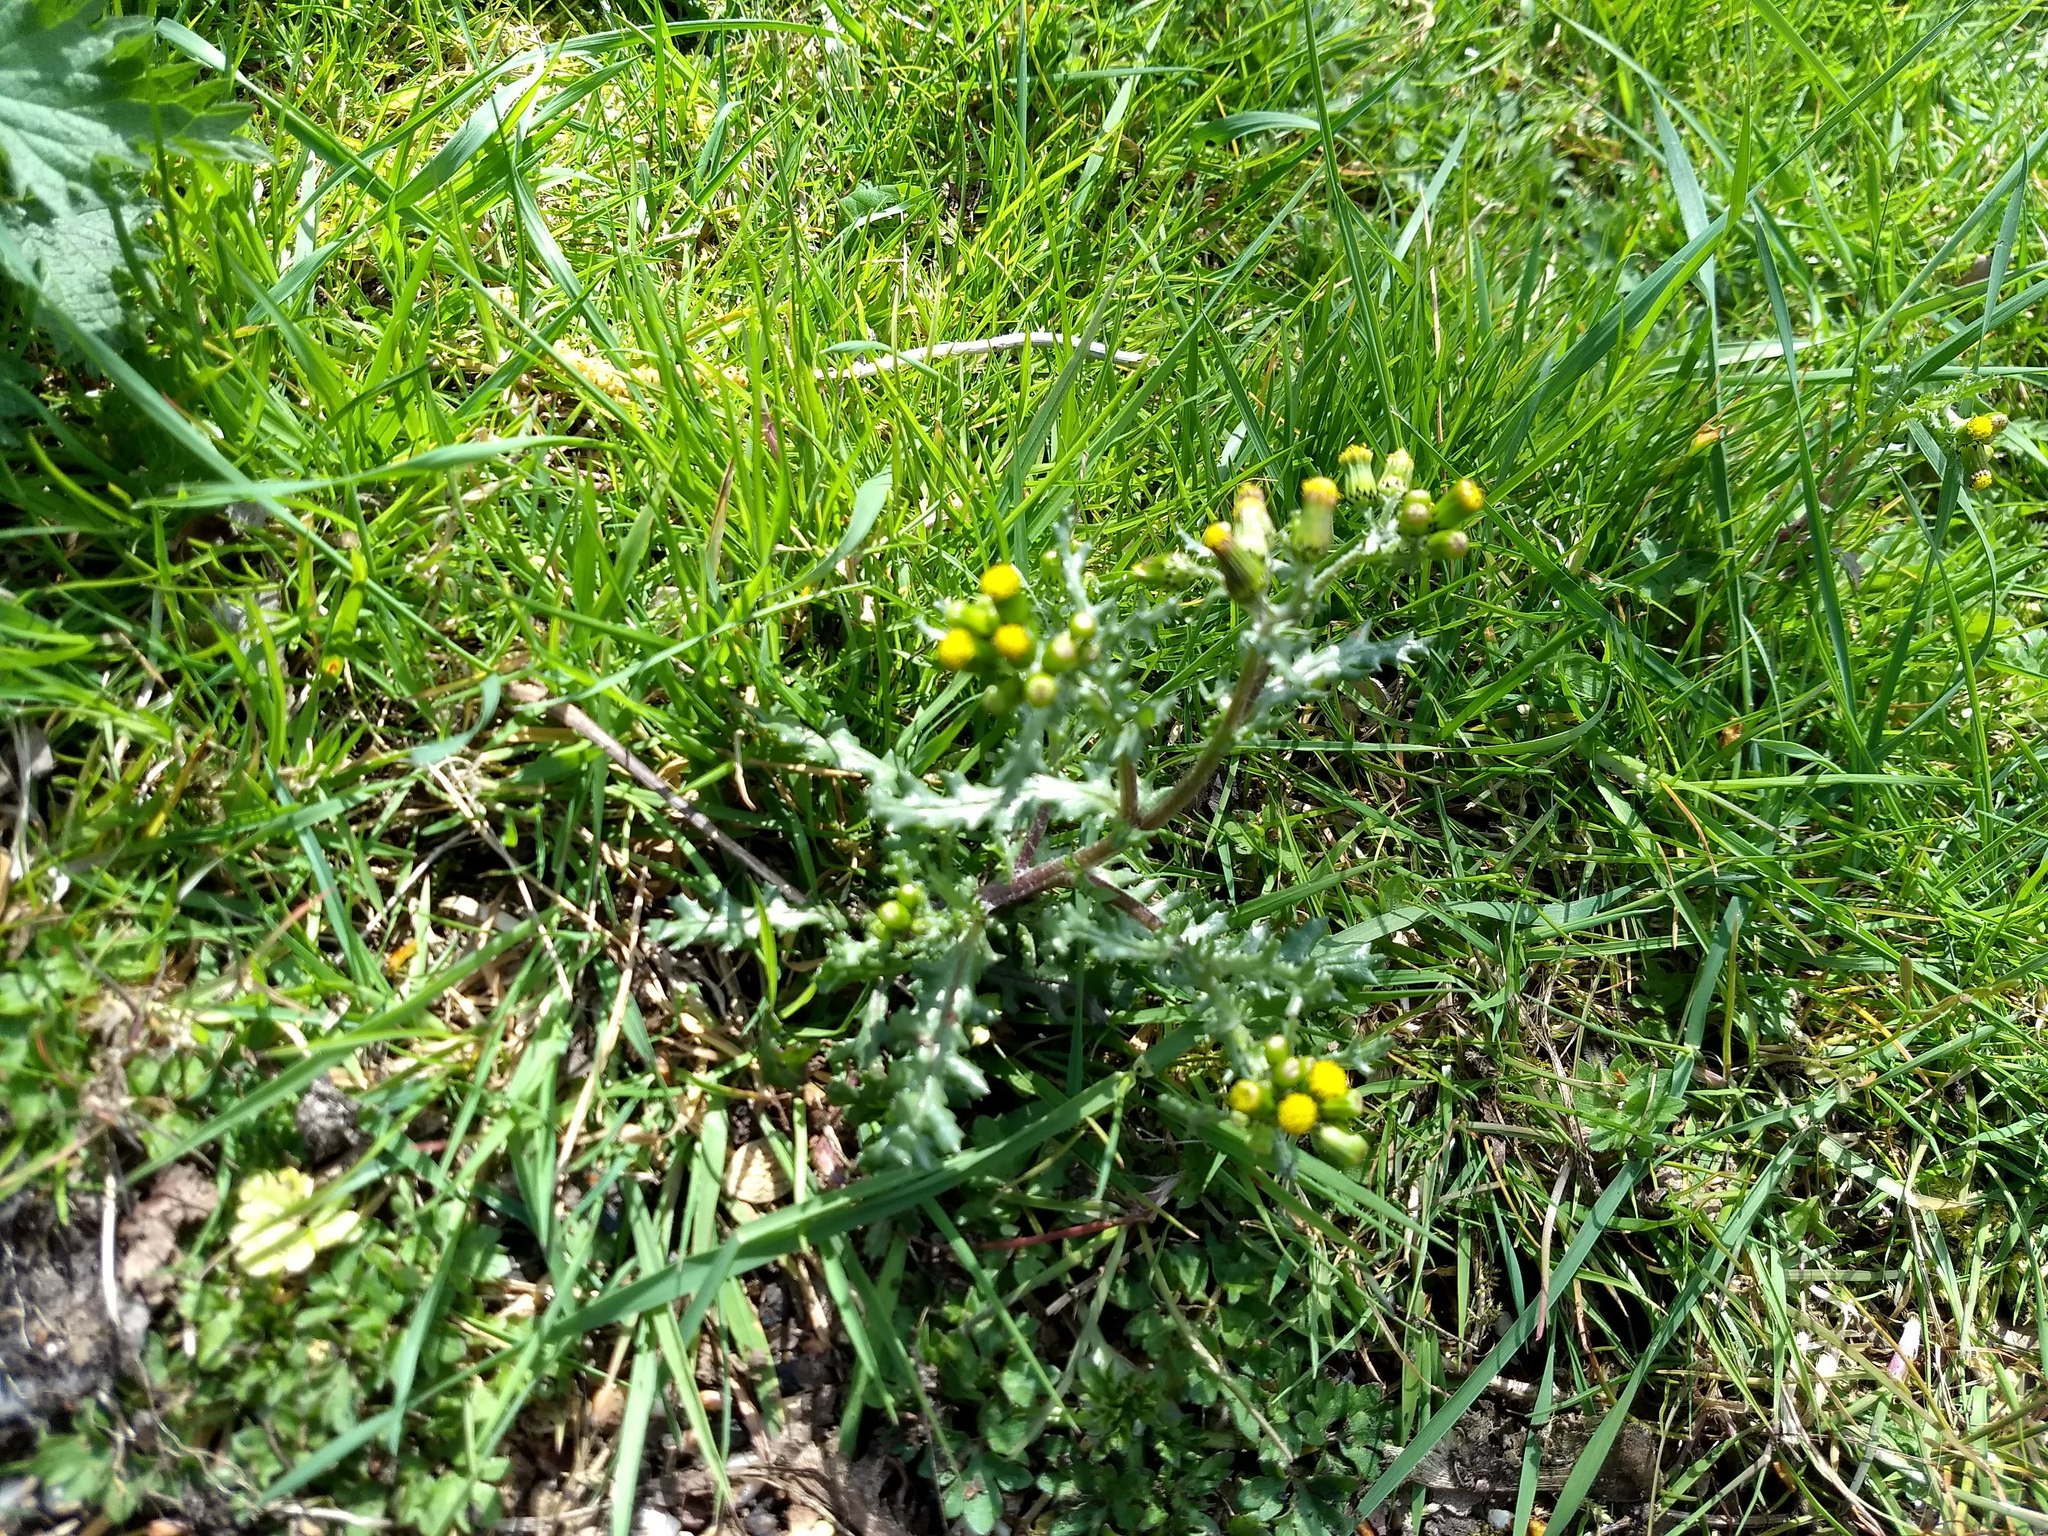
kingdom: Plantae
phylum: Tracheophyta
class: Magnoliopsida
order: Asterales
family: Asteraceae
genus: Senecio
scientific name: Senecio vulgaris
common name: Old-man-in-the-spring
